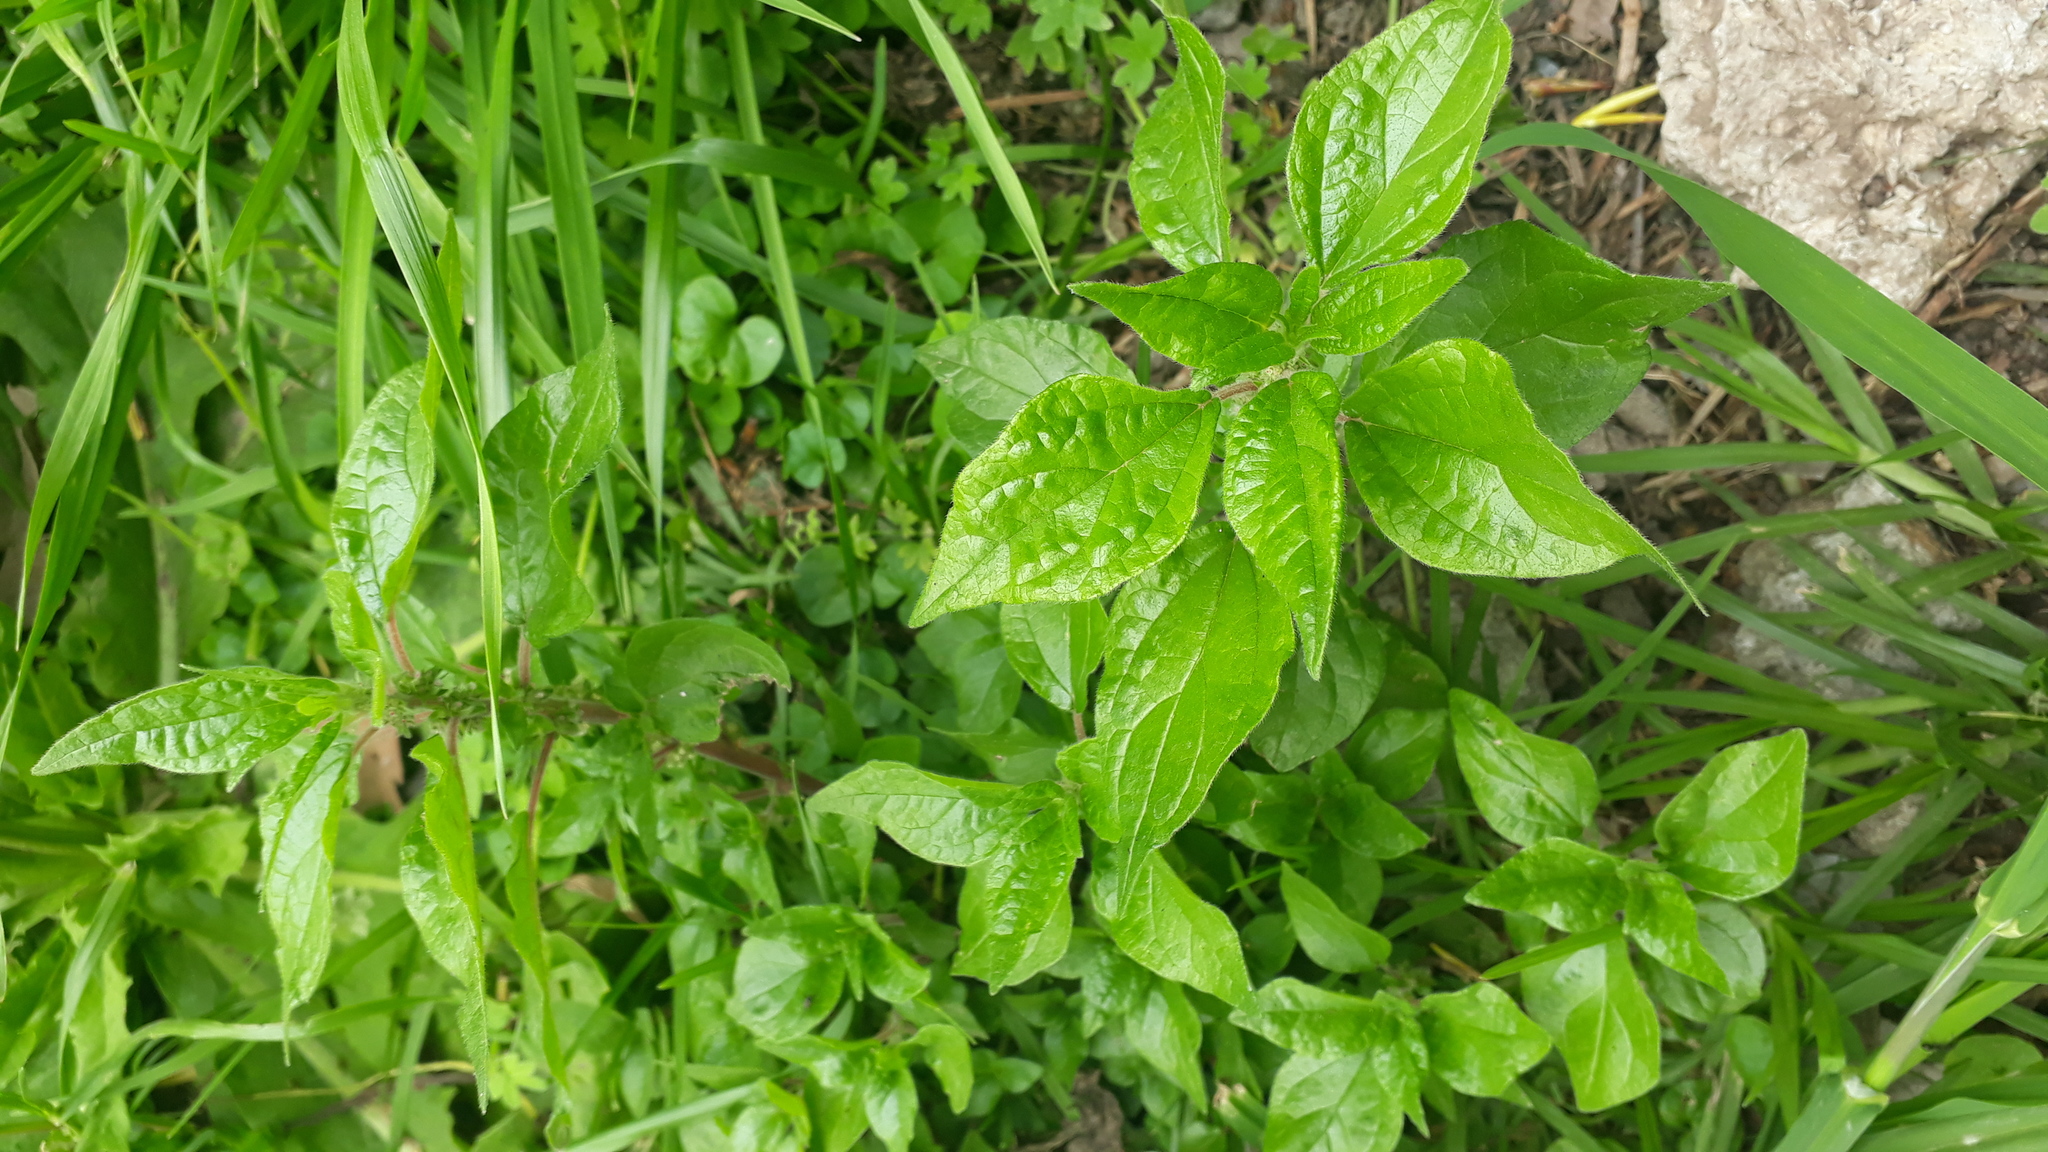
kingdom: Plantae
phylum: Tracheophyta
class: Magnoliopsida
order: Rosales
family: Urticaceae
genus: Parietaria
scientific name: Parietaria judaica
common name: Pellitory-of-the-wall
